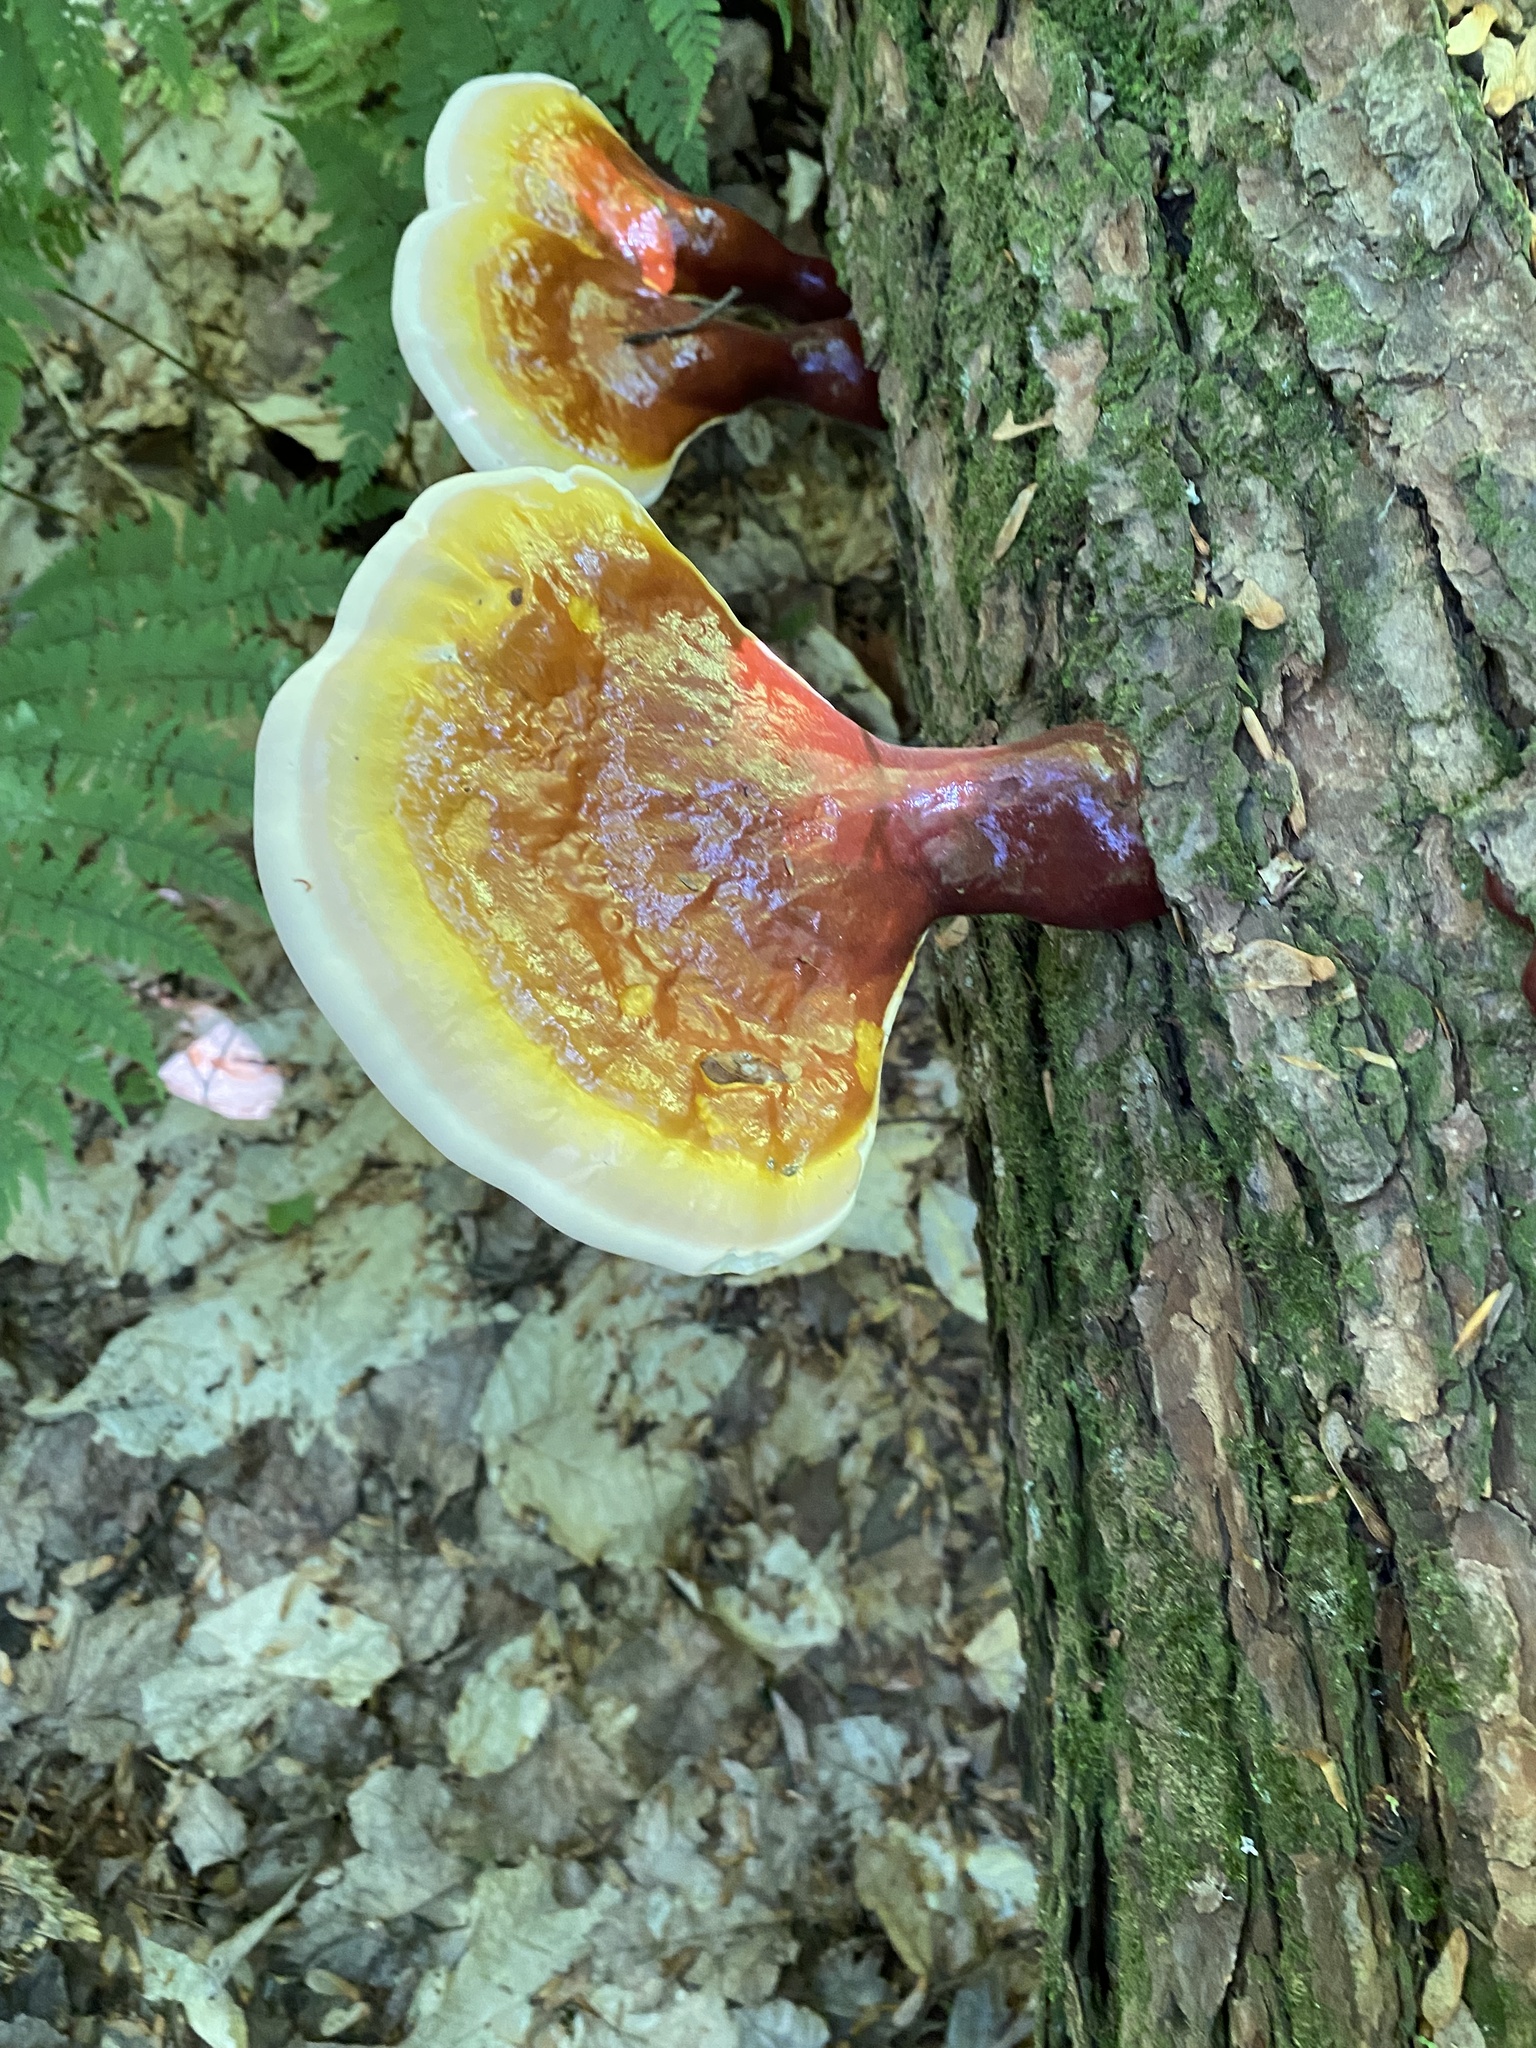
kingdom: Fungi
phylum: Basidiomycota
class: Agaricomycetes
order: Polyporales
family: Polyporaceae
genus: Ganoderma
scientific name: Ganoderma tsugae
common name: Hemlock varnish shelf
